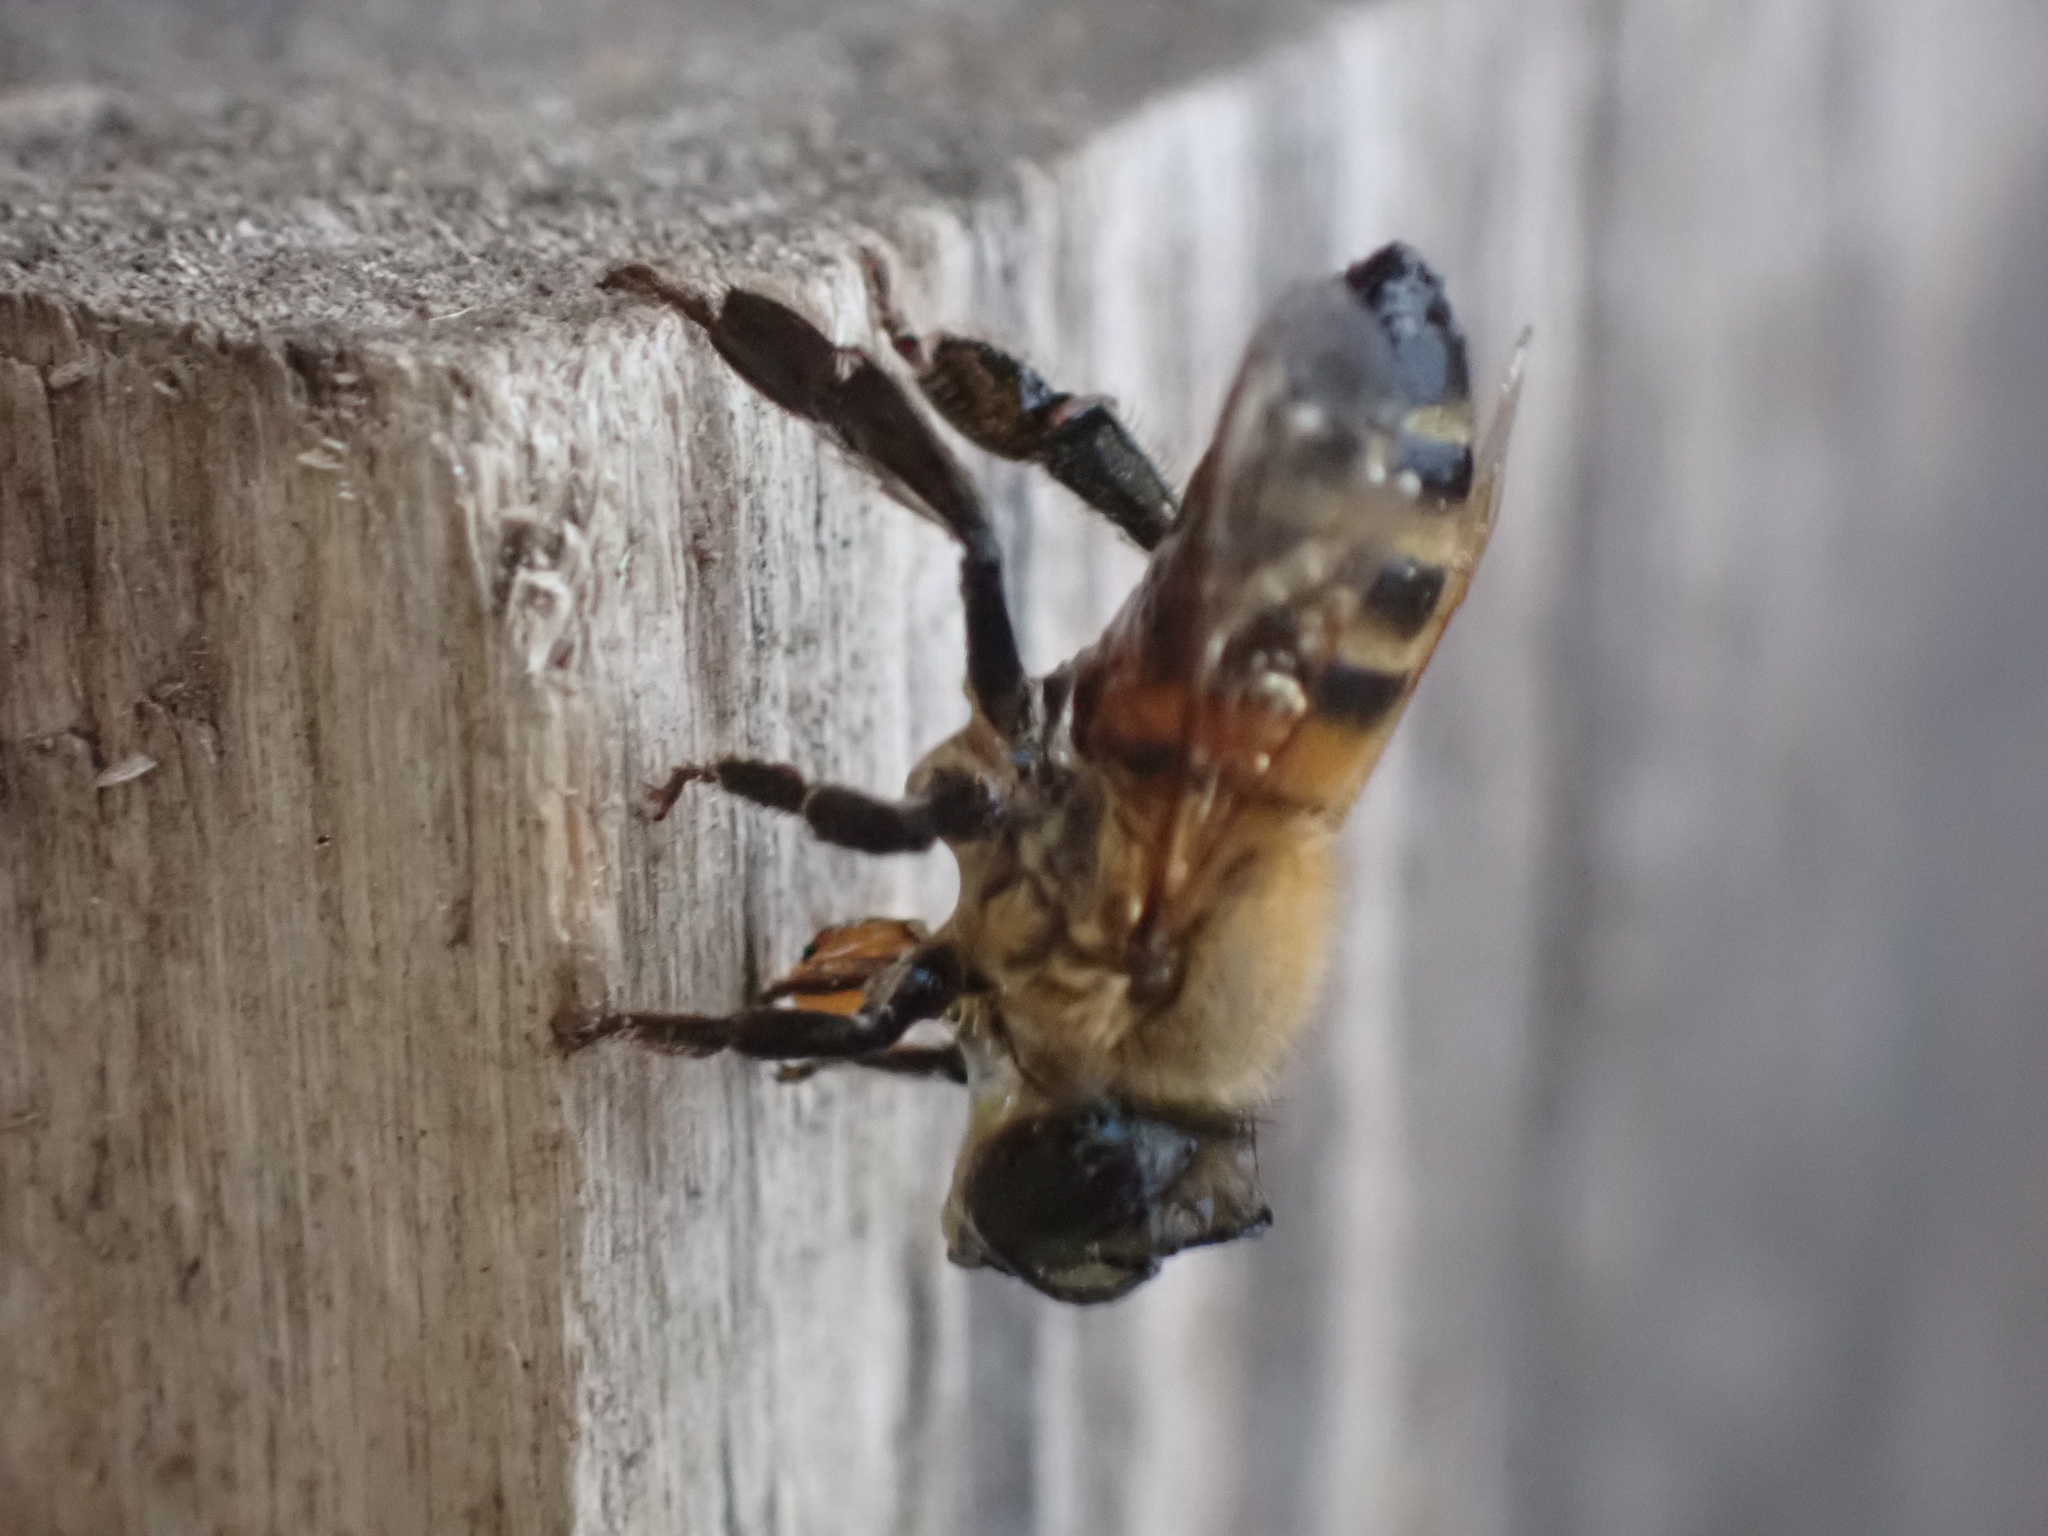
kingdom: Animalia
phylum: Arthropoda
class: Insecta
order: Hymenoptera
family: Apidae
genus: Apis
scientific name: Apis mellifera
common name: Honey bee
